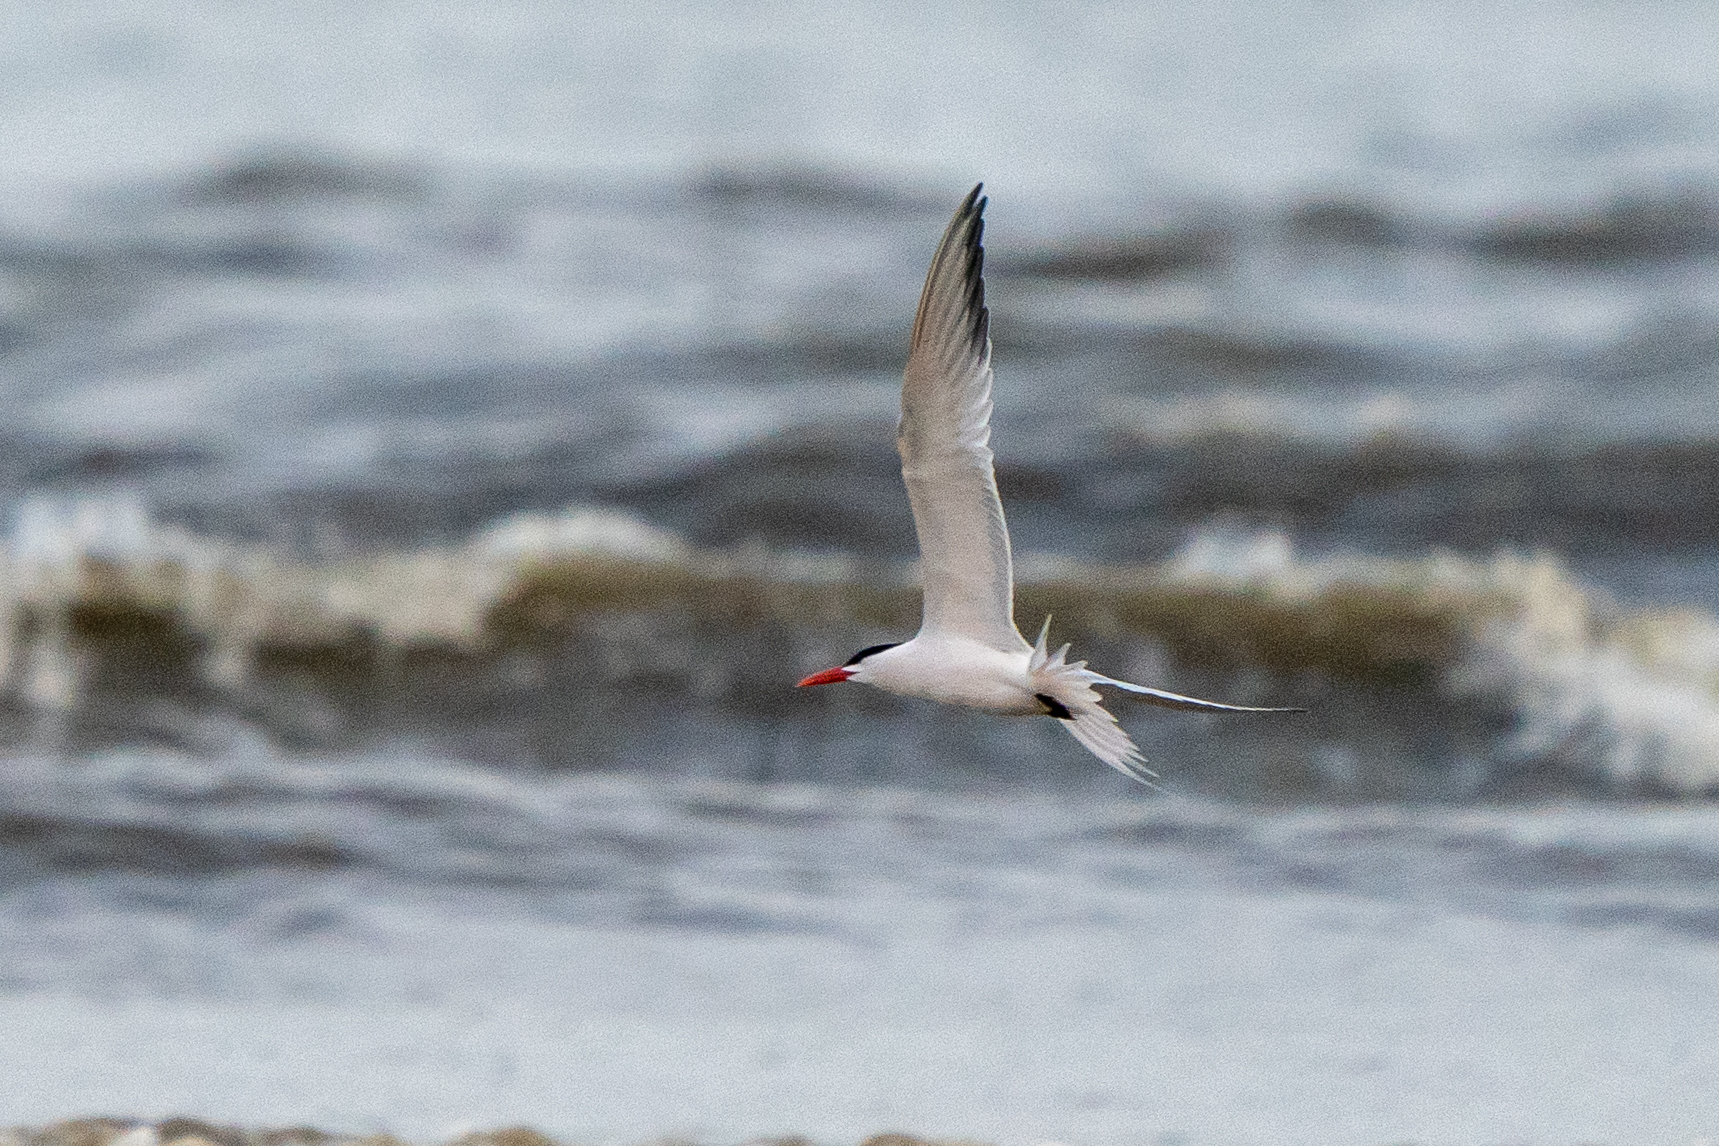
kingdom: Animalia
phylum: Chordata
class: Aves
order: Charadriiformes
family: Laridae
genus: Thalasseus
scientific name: Thalasseus maximus
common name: Royal tern
